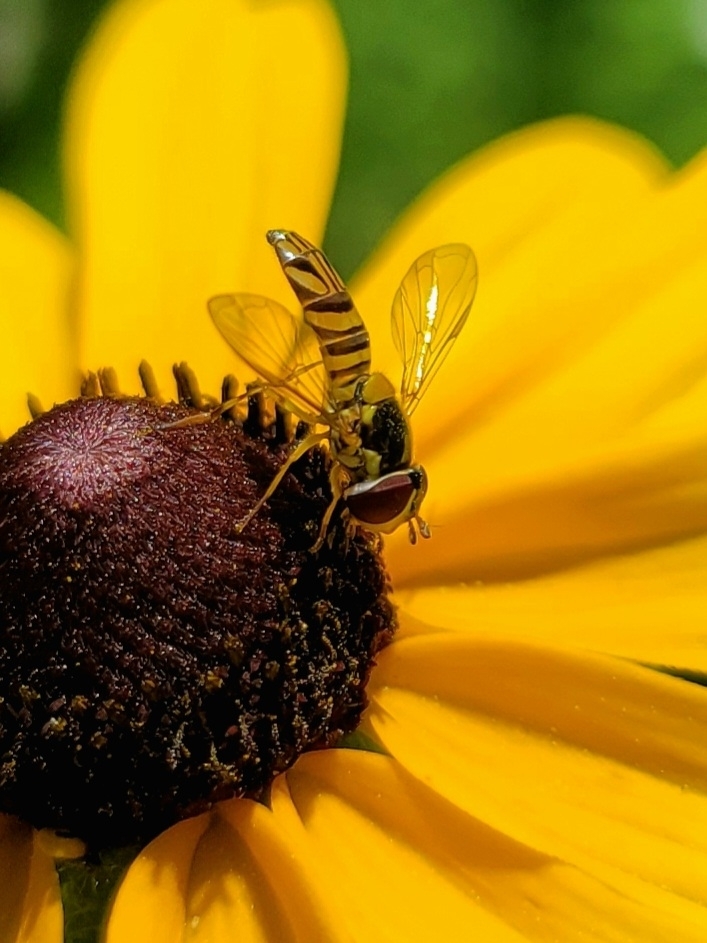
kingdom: Animalia
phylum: Arthropoda
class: Insecta
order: Diptera
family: Syrphidae
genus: Allograpta
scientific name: Allograpta obliqua
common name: Common oblique syrphid
